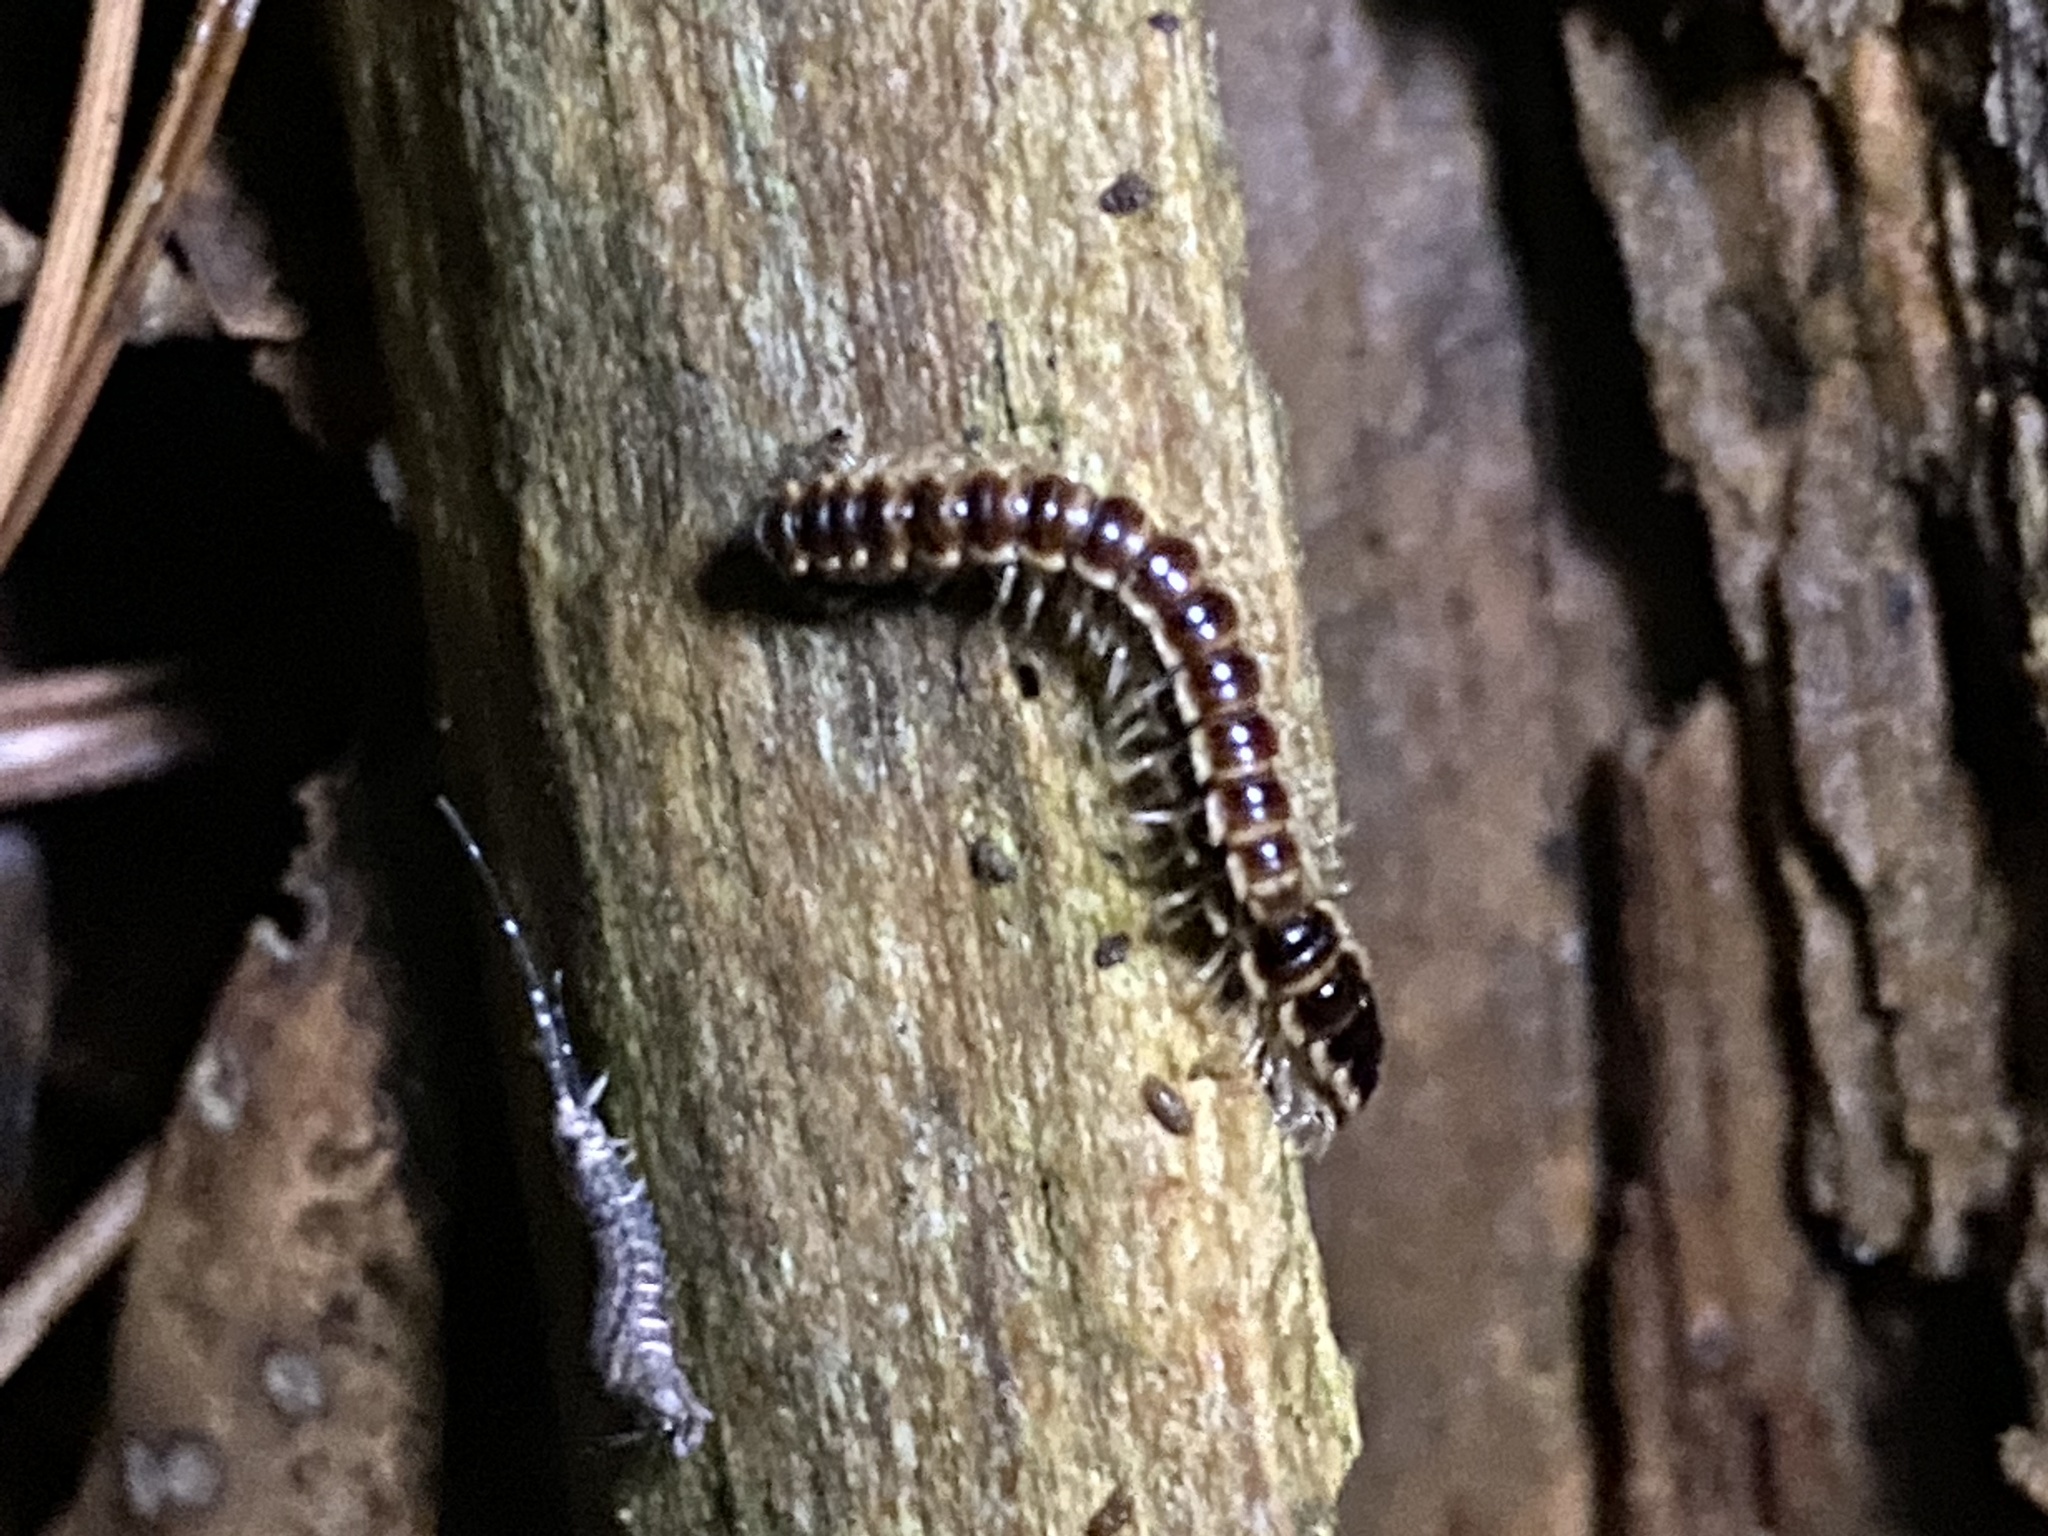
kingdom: Animalia
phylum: Arthropoda
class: Diplopoda
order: Polydesmida
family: Paradoxosomatidae
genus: Oxidus
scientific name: Oxidus gracilis
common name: Greenhouse millipede
